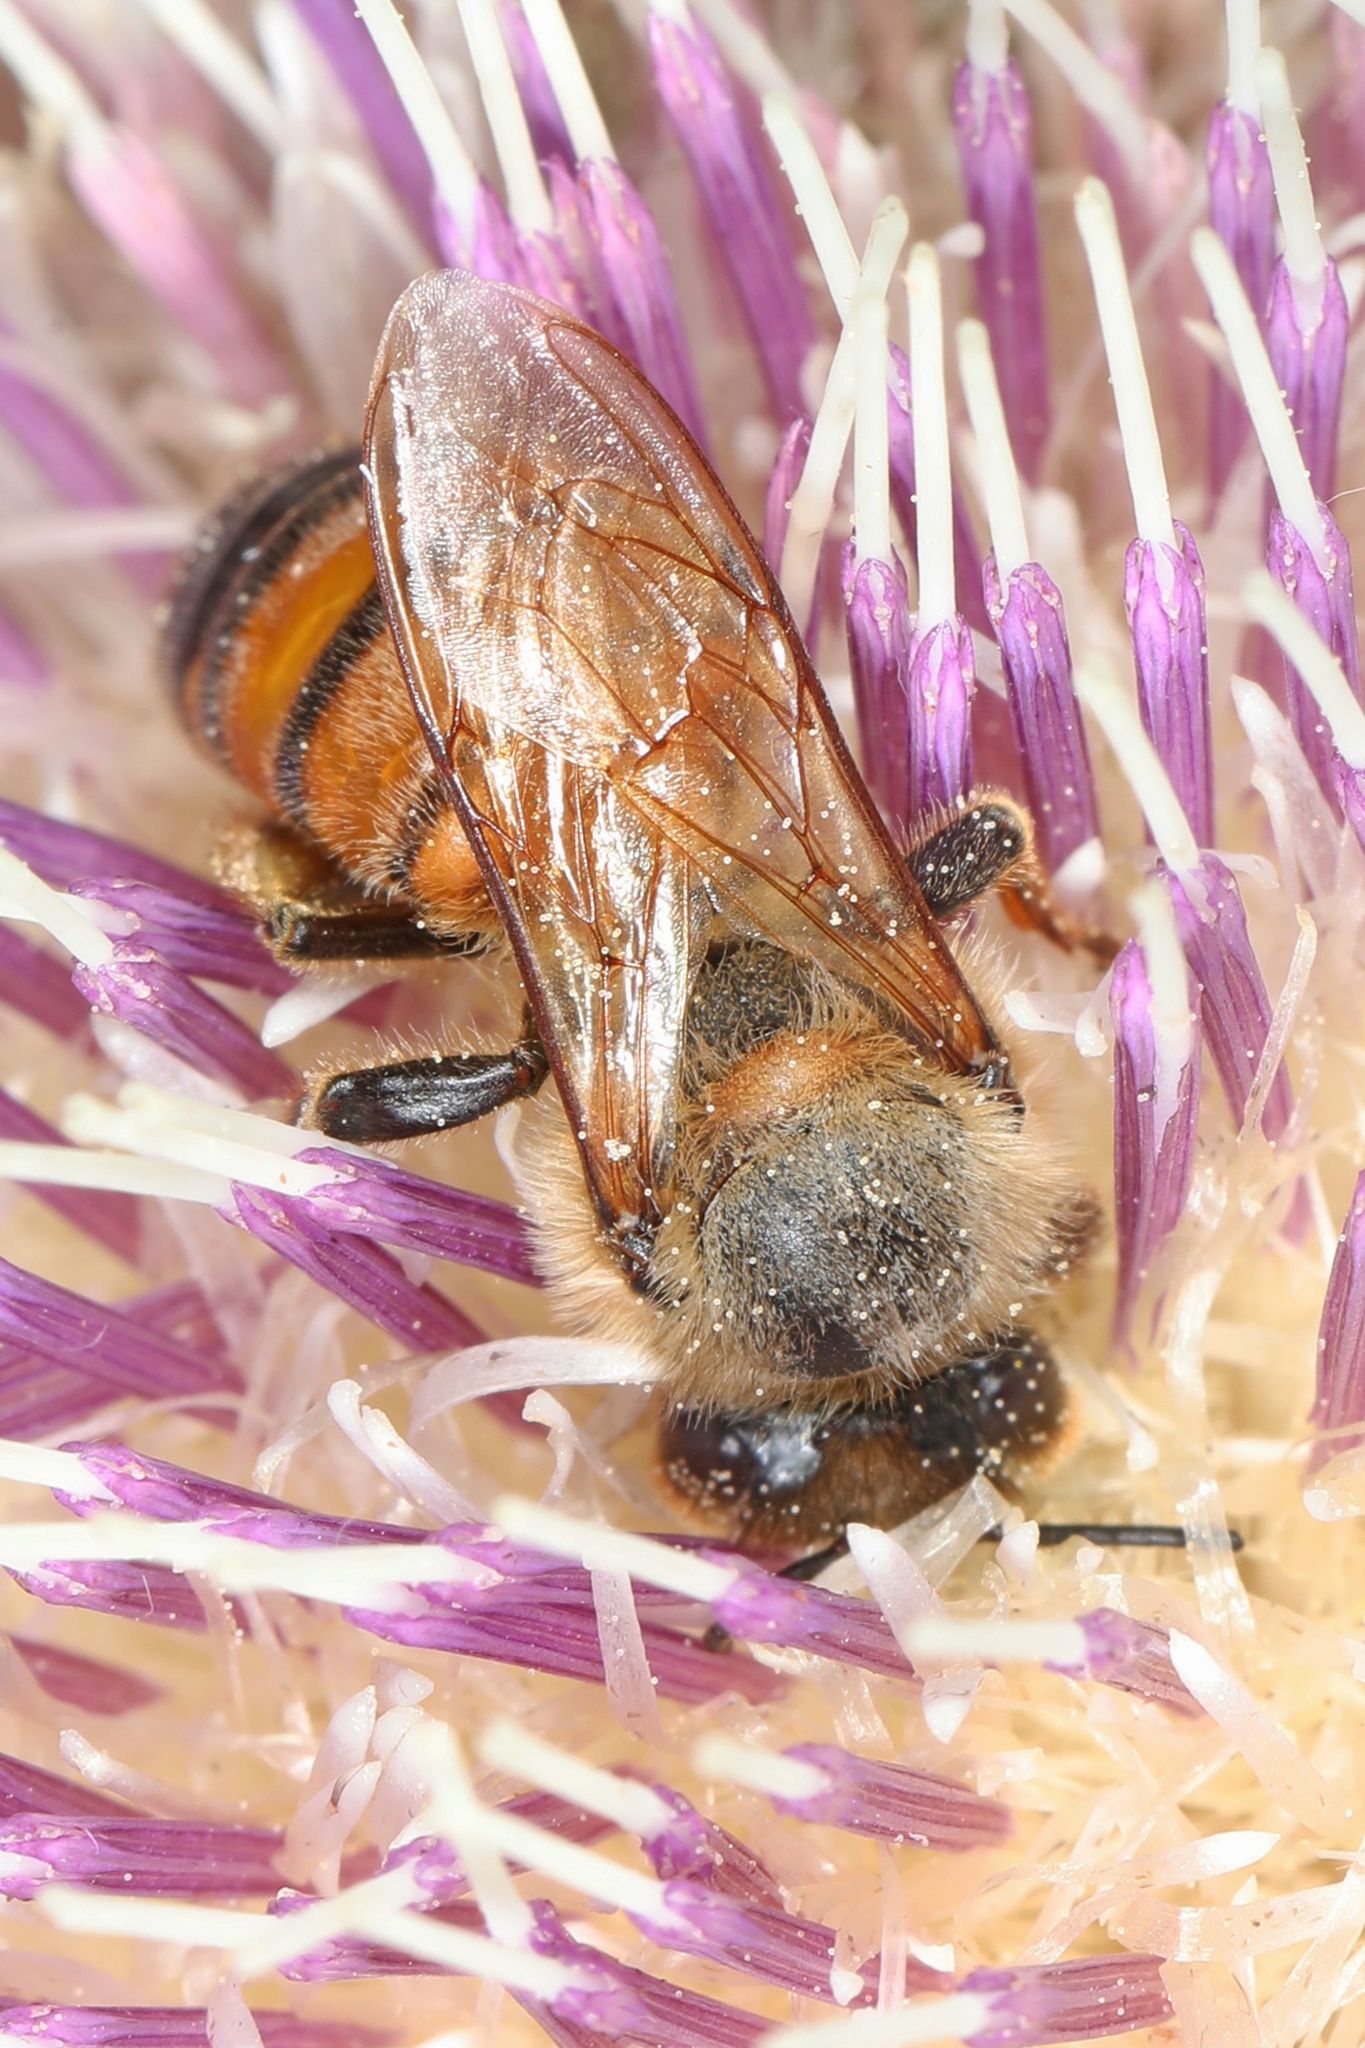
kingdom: Animalia
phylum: Arthropoda
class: Insecta
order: Hymenoptera
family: Apidae
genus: Apis
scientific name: Apis mellifera
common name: Honey bee
